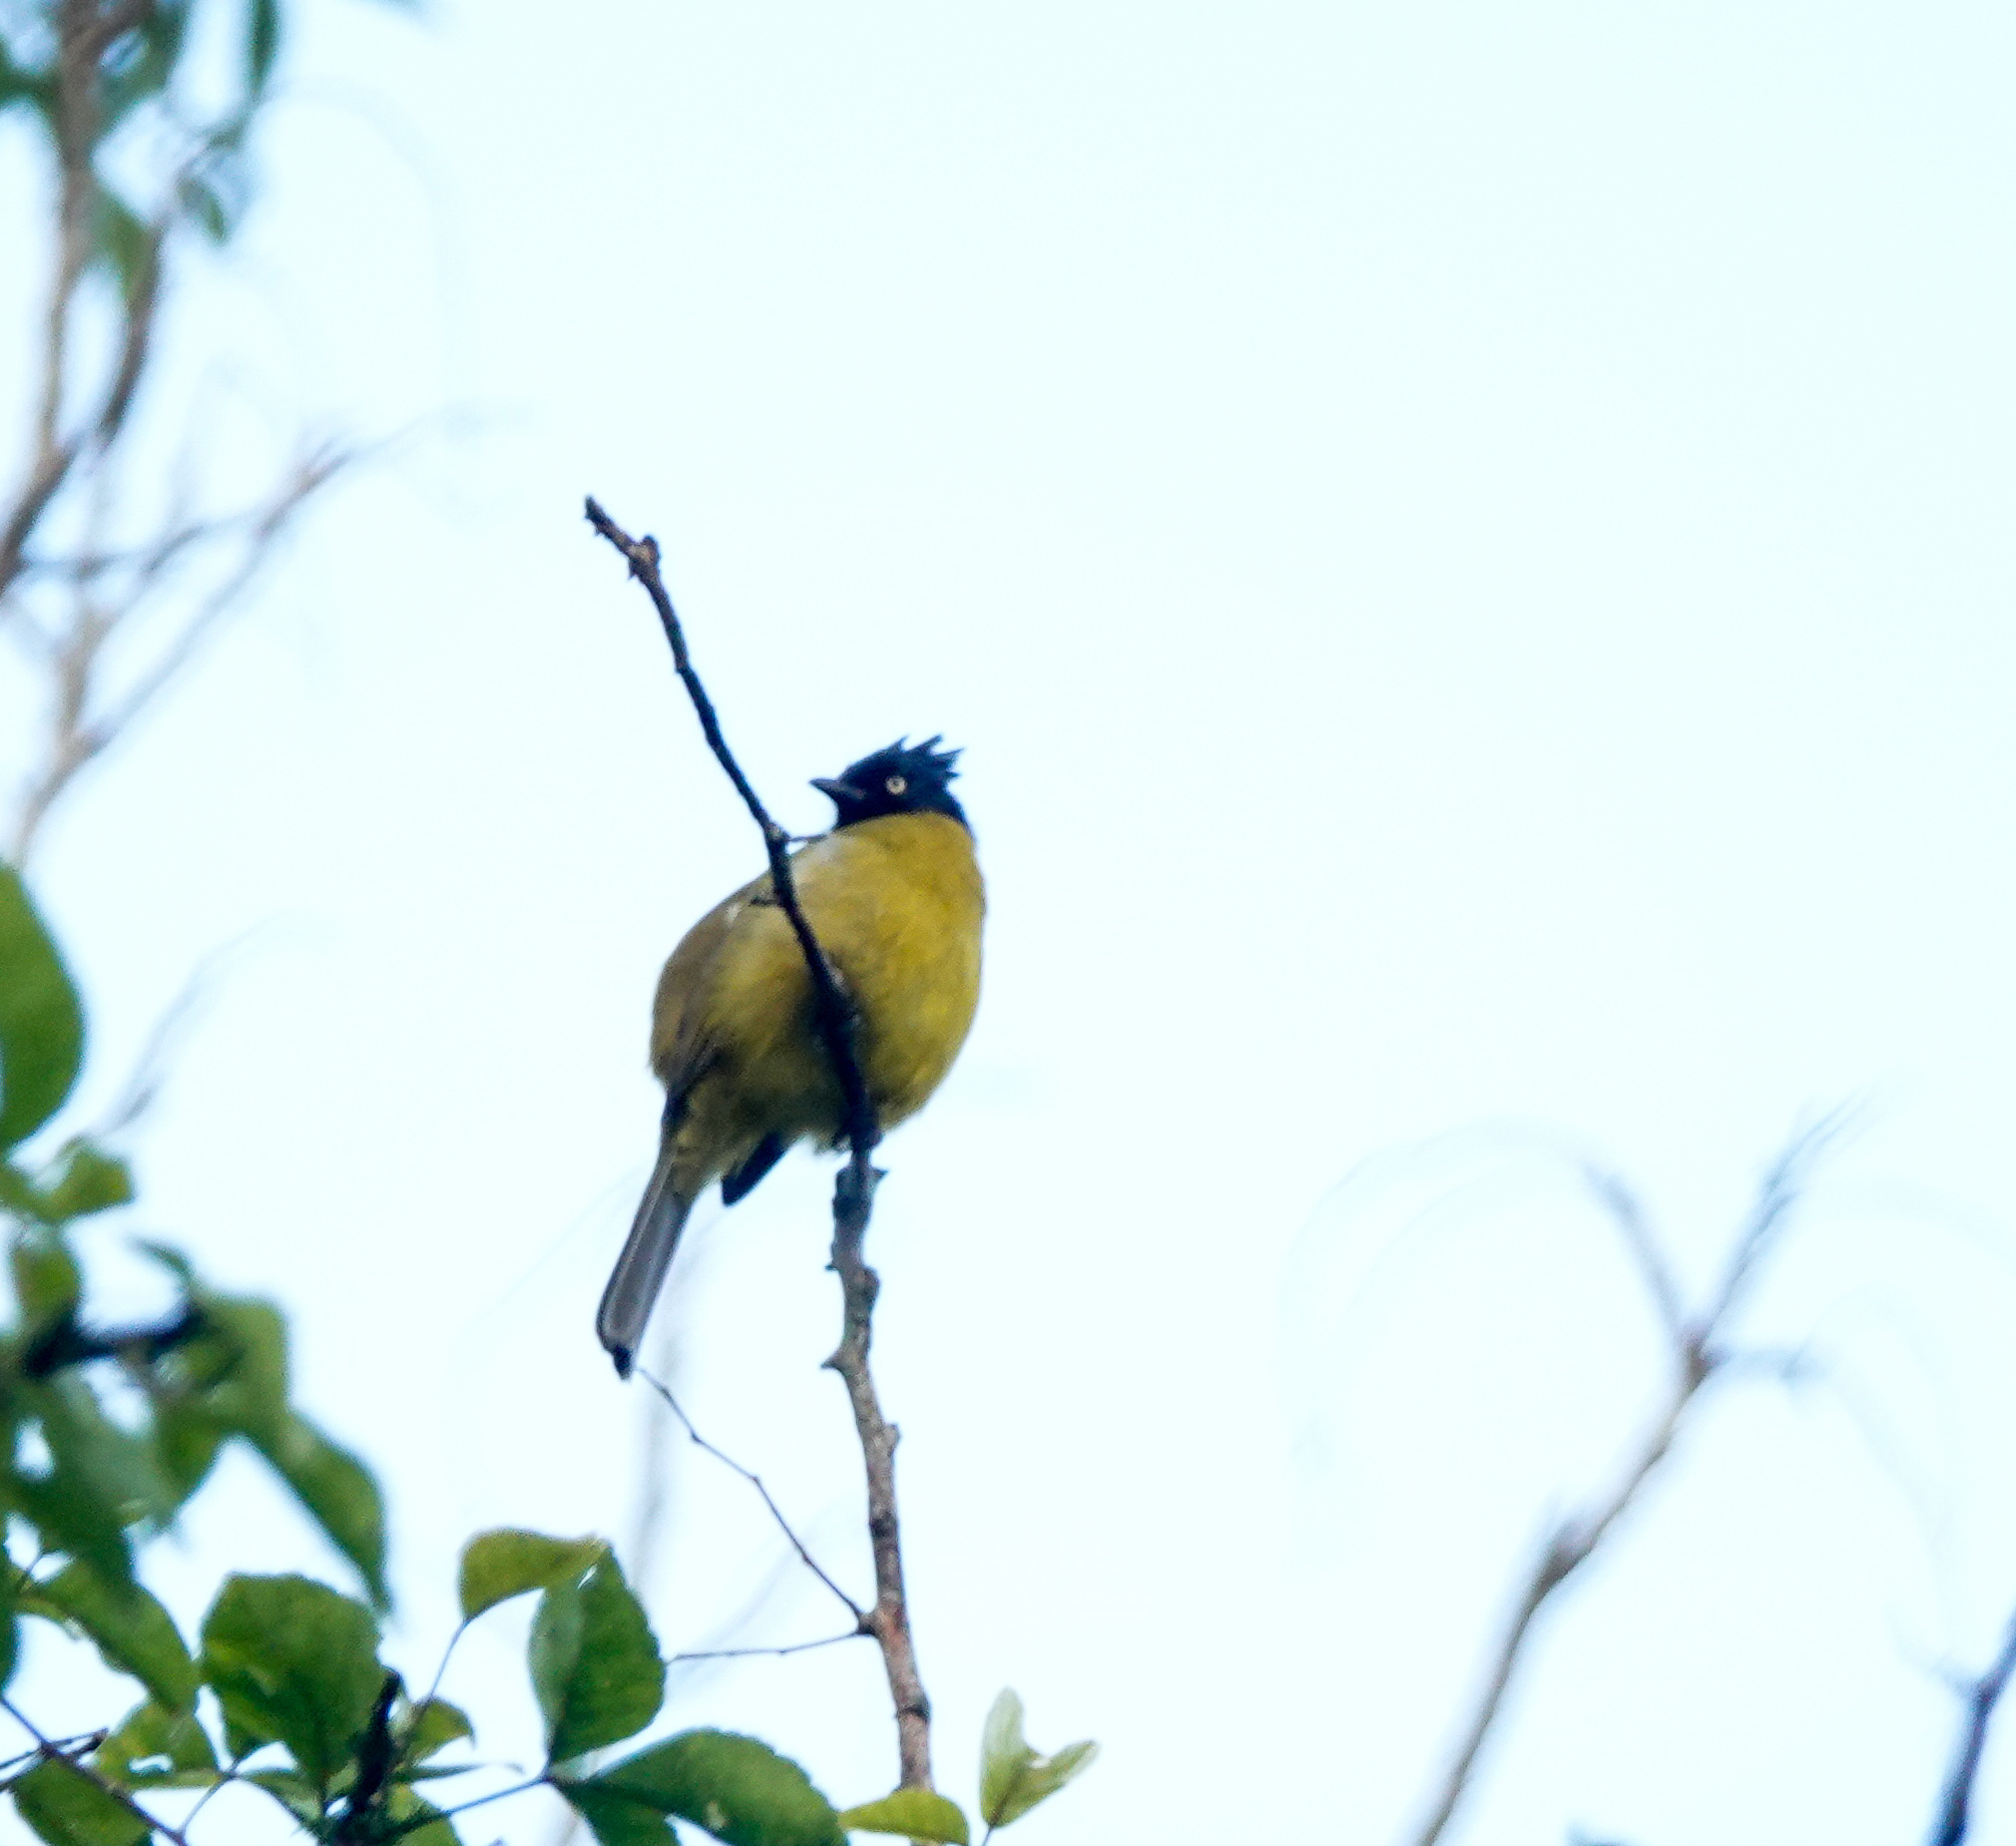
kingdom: Animalia
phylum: Chordata
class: Aves
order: Passeriformes
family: Pycnonotidae
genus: Pycnonotus
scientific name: Pycnonotus flaviventris
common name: Black-crested bulbul
